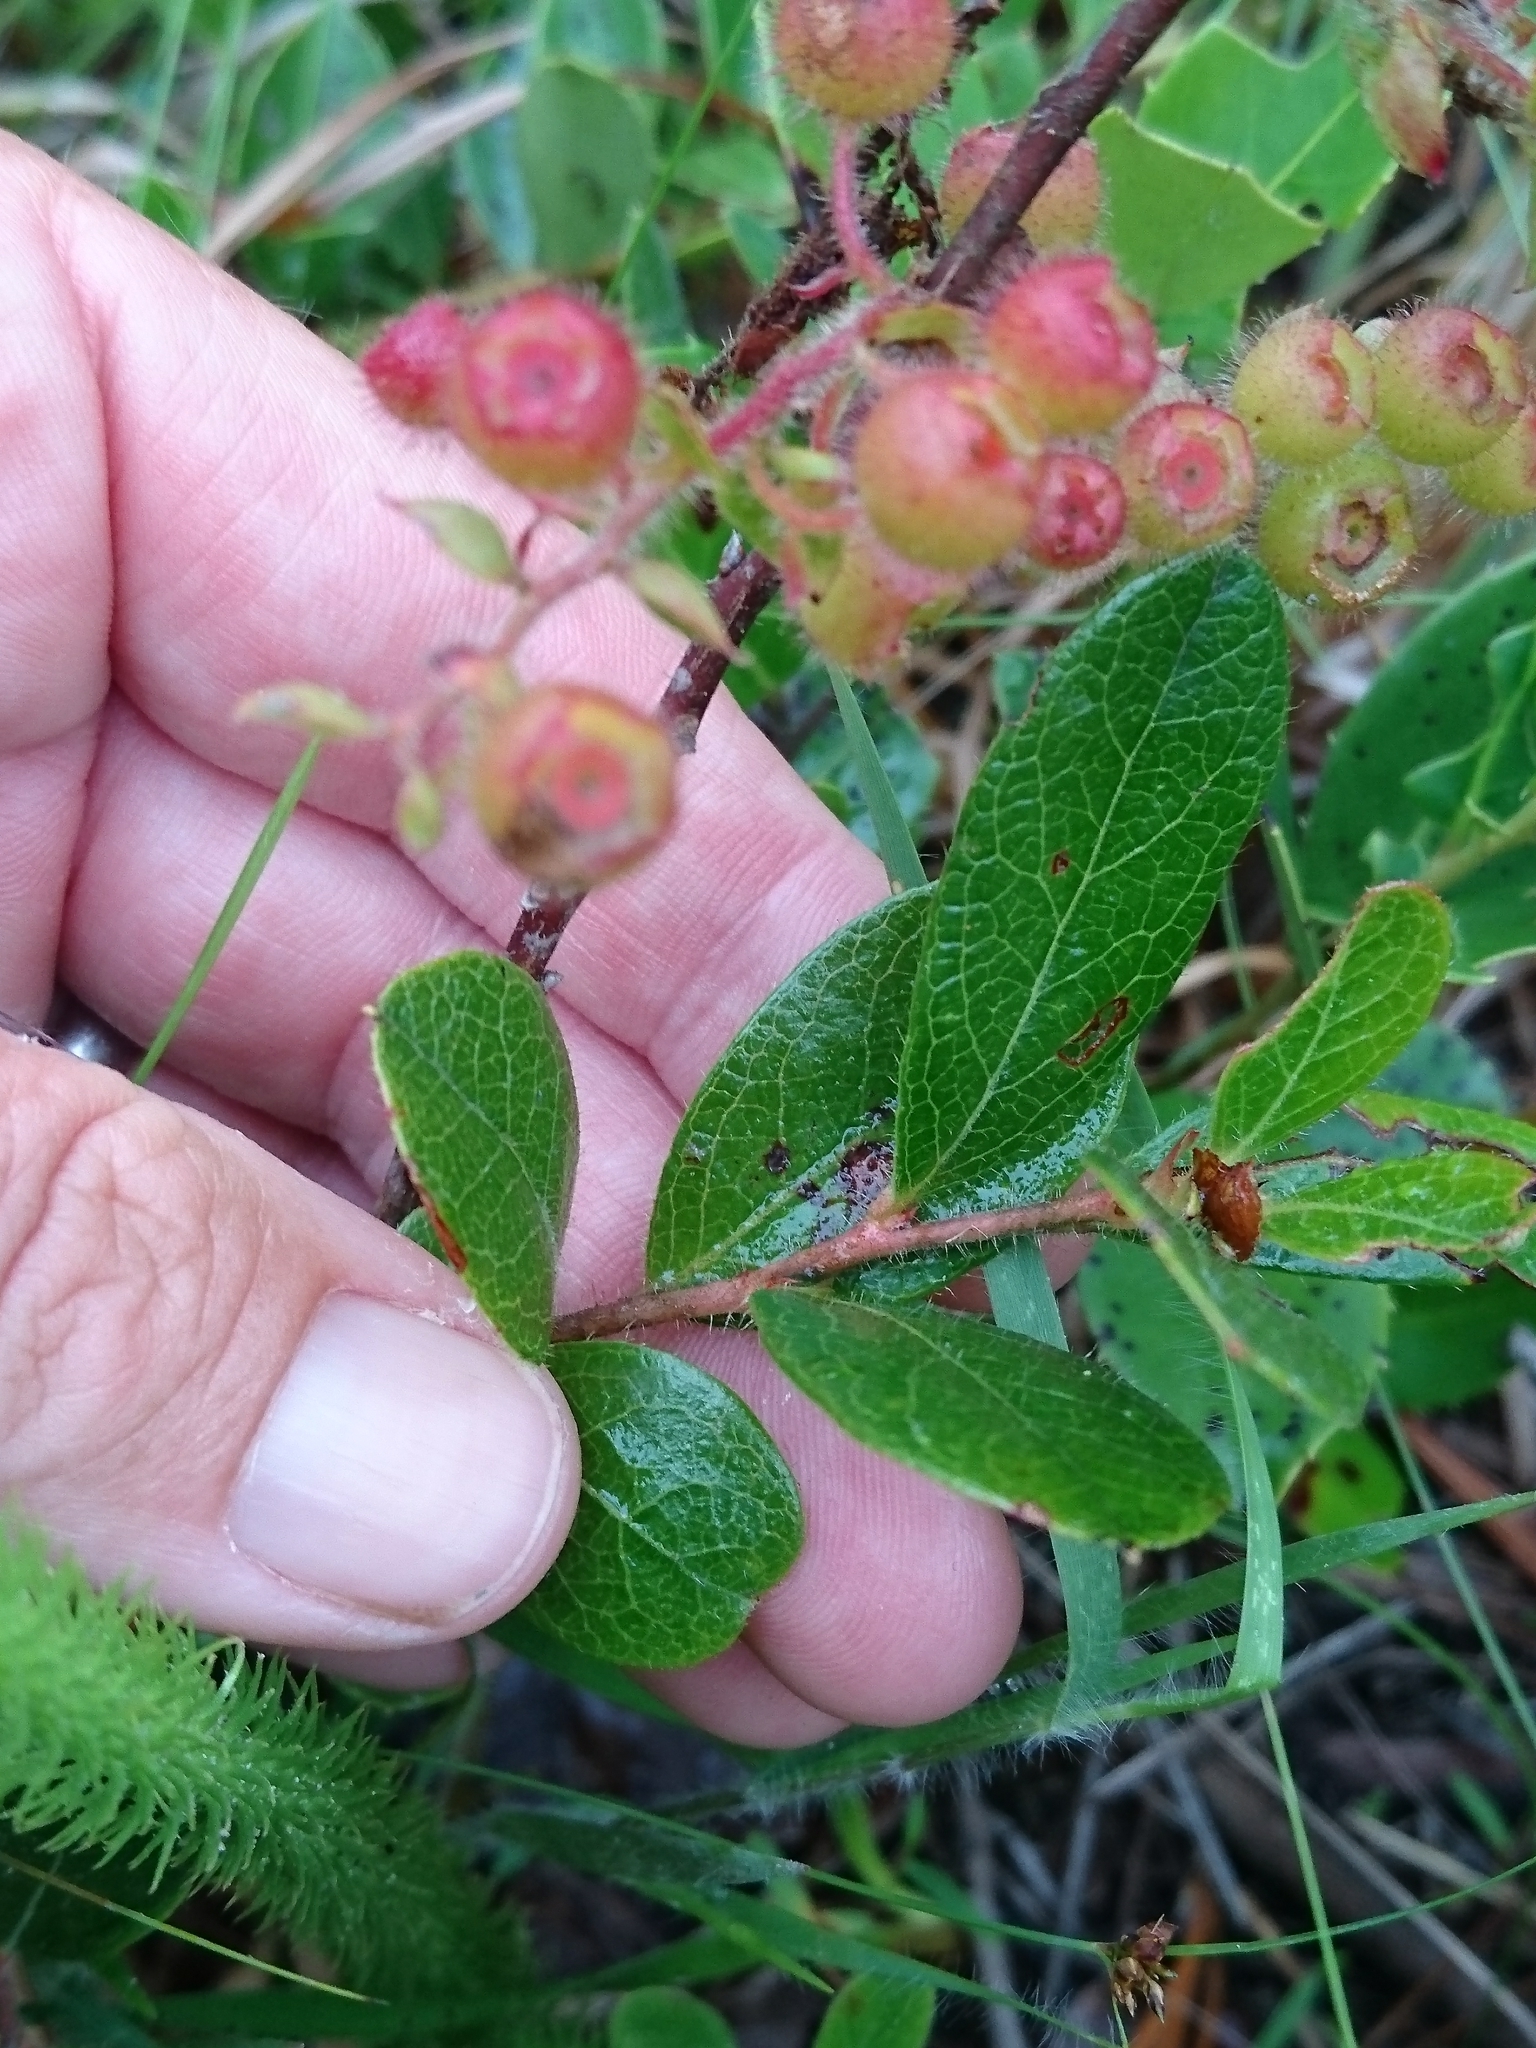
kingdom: Plantae
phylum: Tracheophyta
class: Magnoliopsida
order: Ericales
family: Ericaceae
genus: Gaylussacia
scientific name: Gaylussacia mosieri
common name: Hirsute huckleberry
